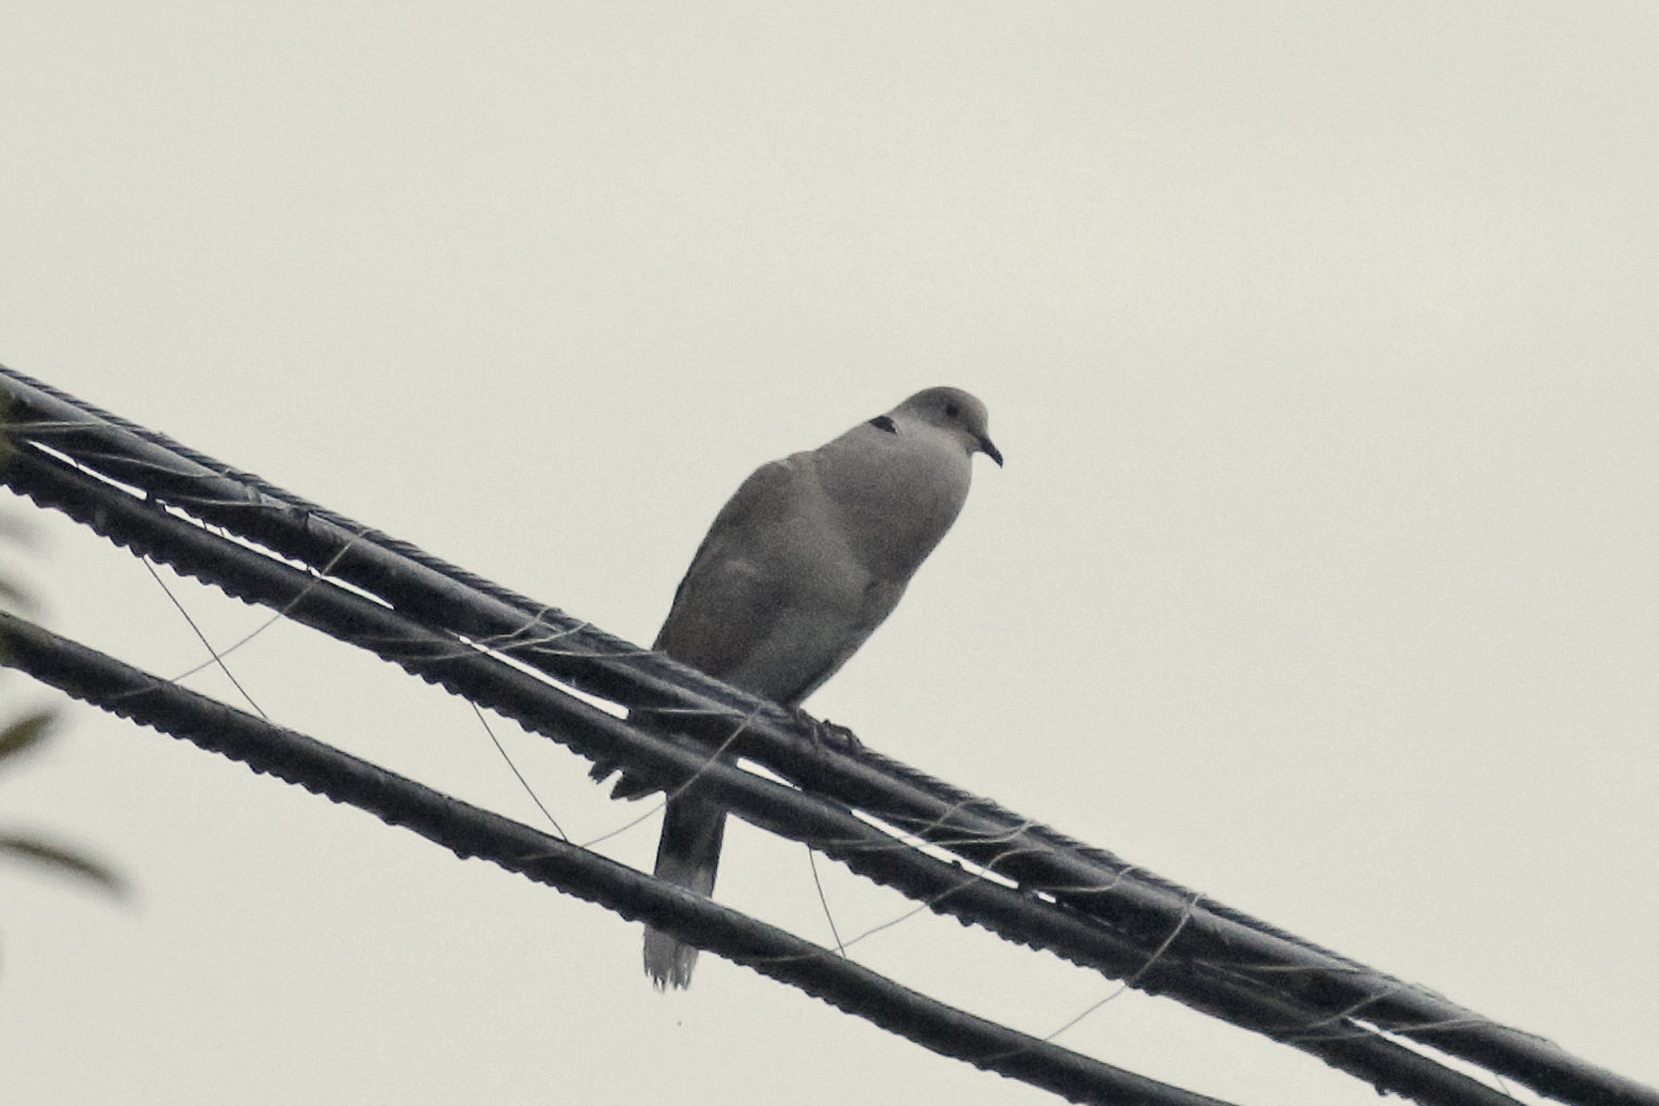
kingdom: Animalia
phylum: Chordata
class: Aves
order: Columbiformes
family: Columbidae
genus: Streptopelia
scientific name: Streptopelia decaocto
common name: Eurasian collared dove
